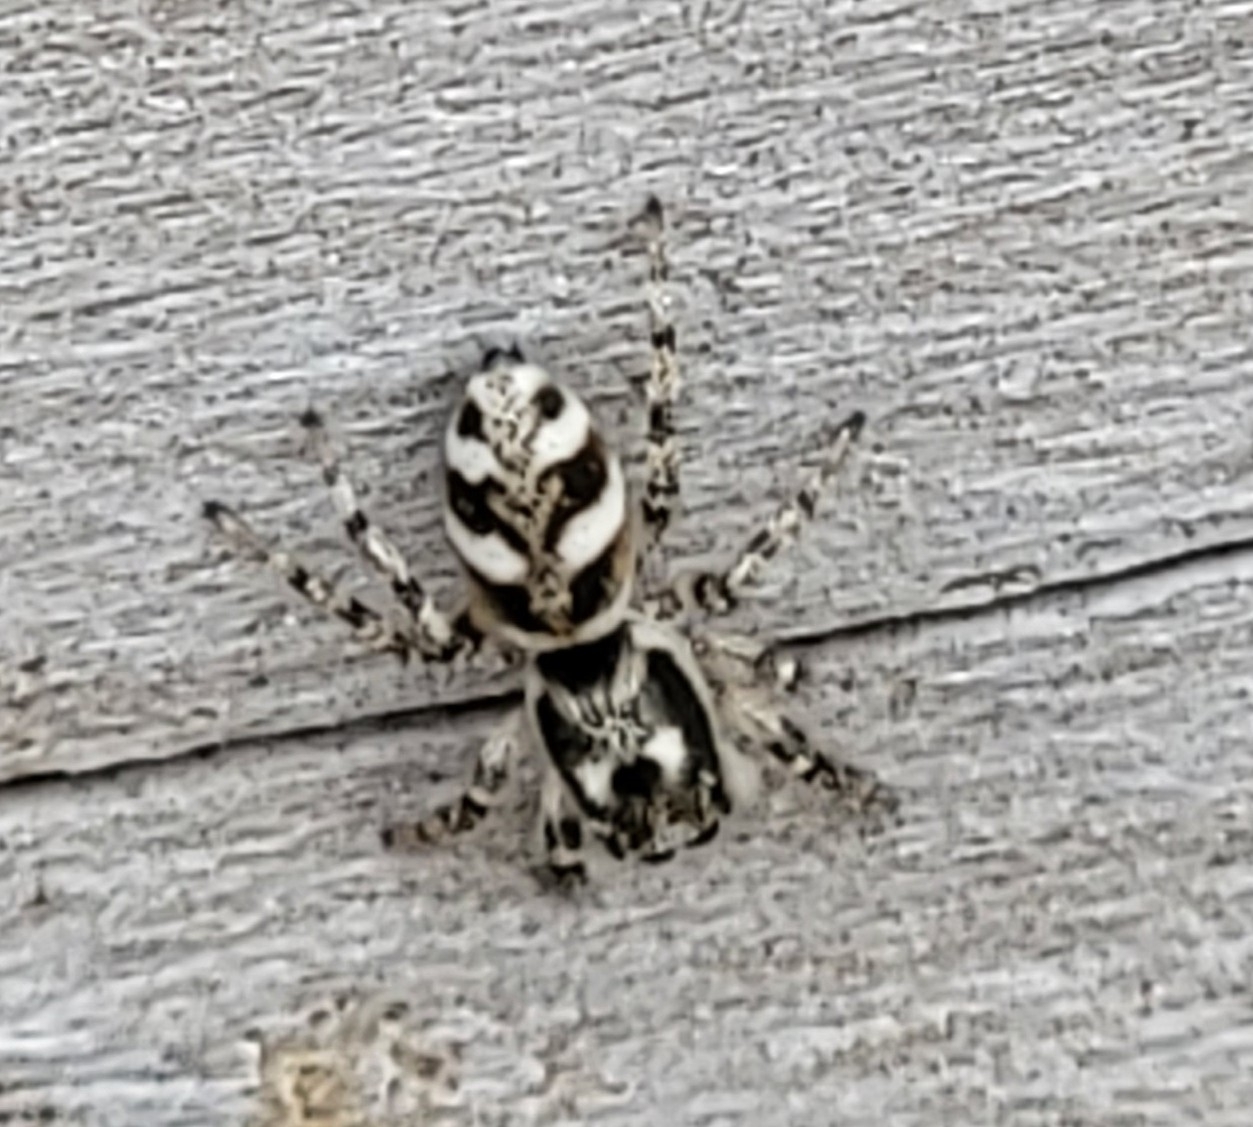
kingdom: Animalia
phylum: Arthropoda
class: Arachnida
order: Araneae
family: Salticidae
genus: Salticus
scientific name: Salticus scenicus
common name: Zebra jumper
